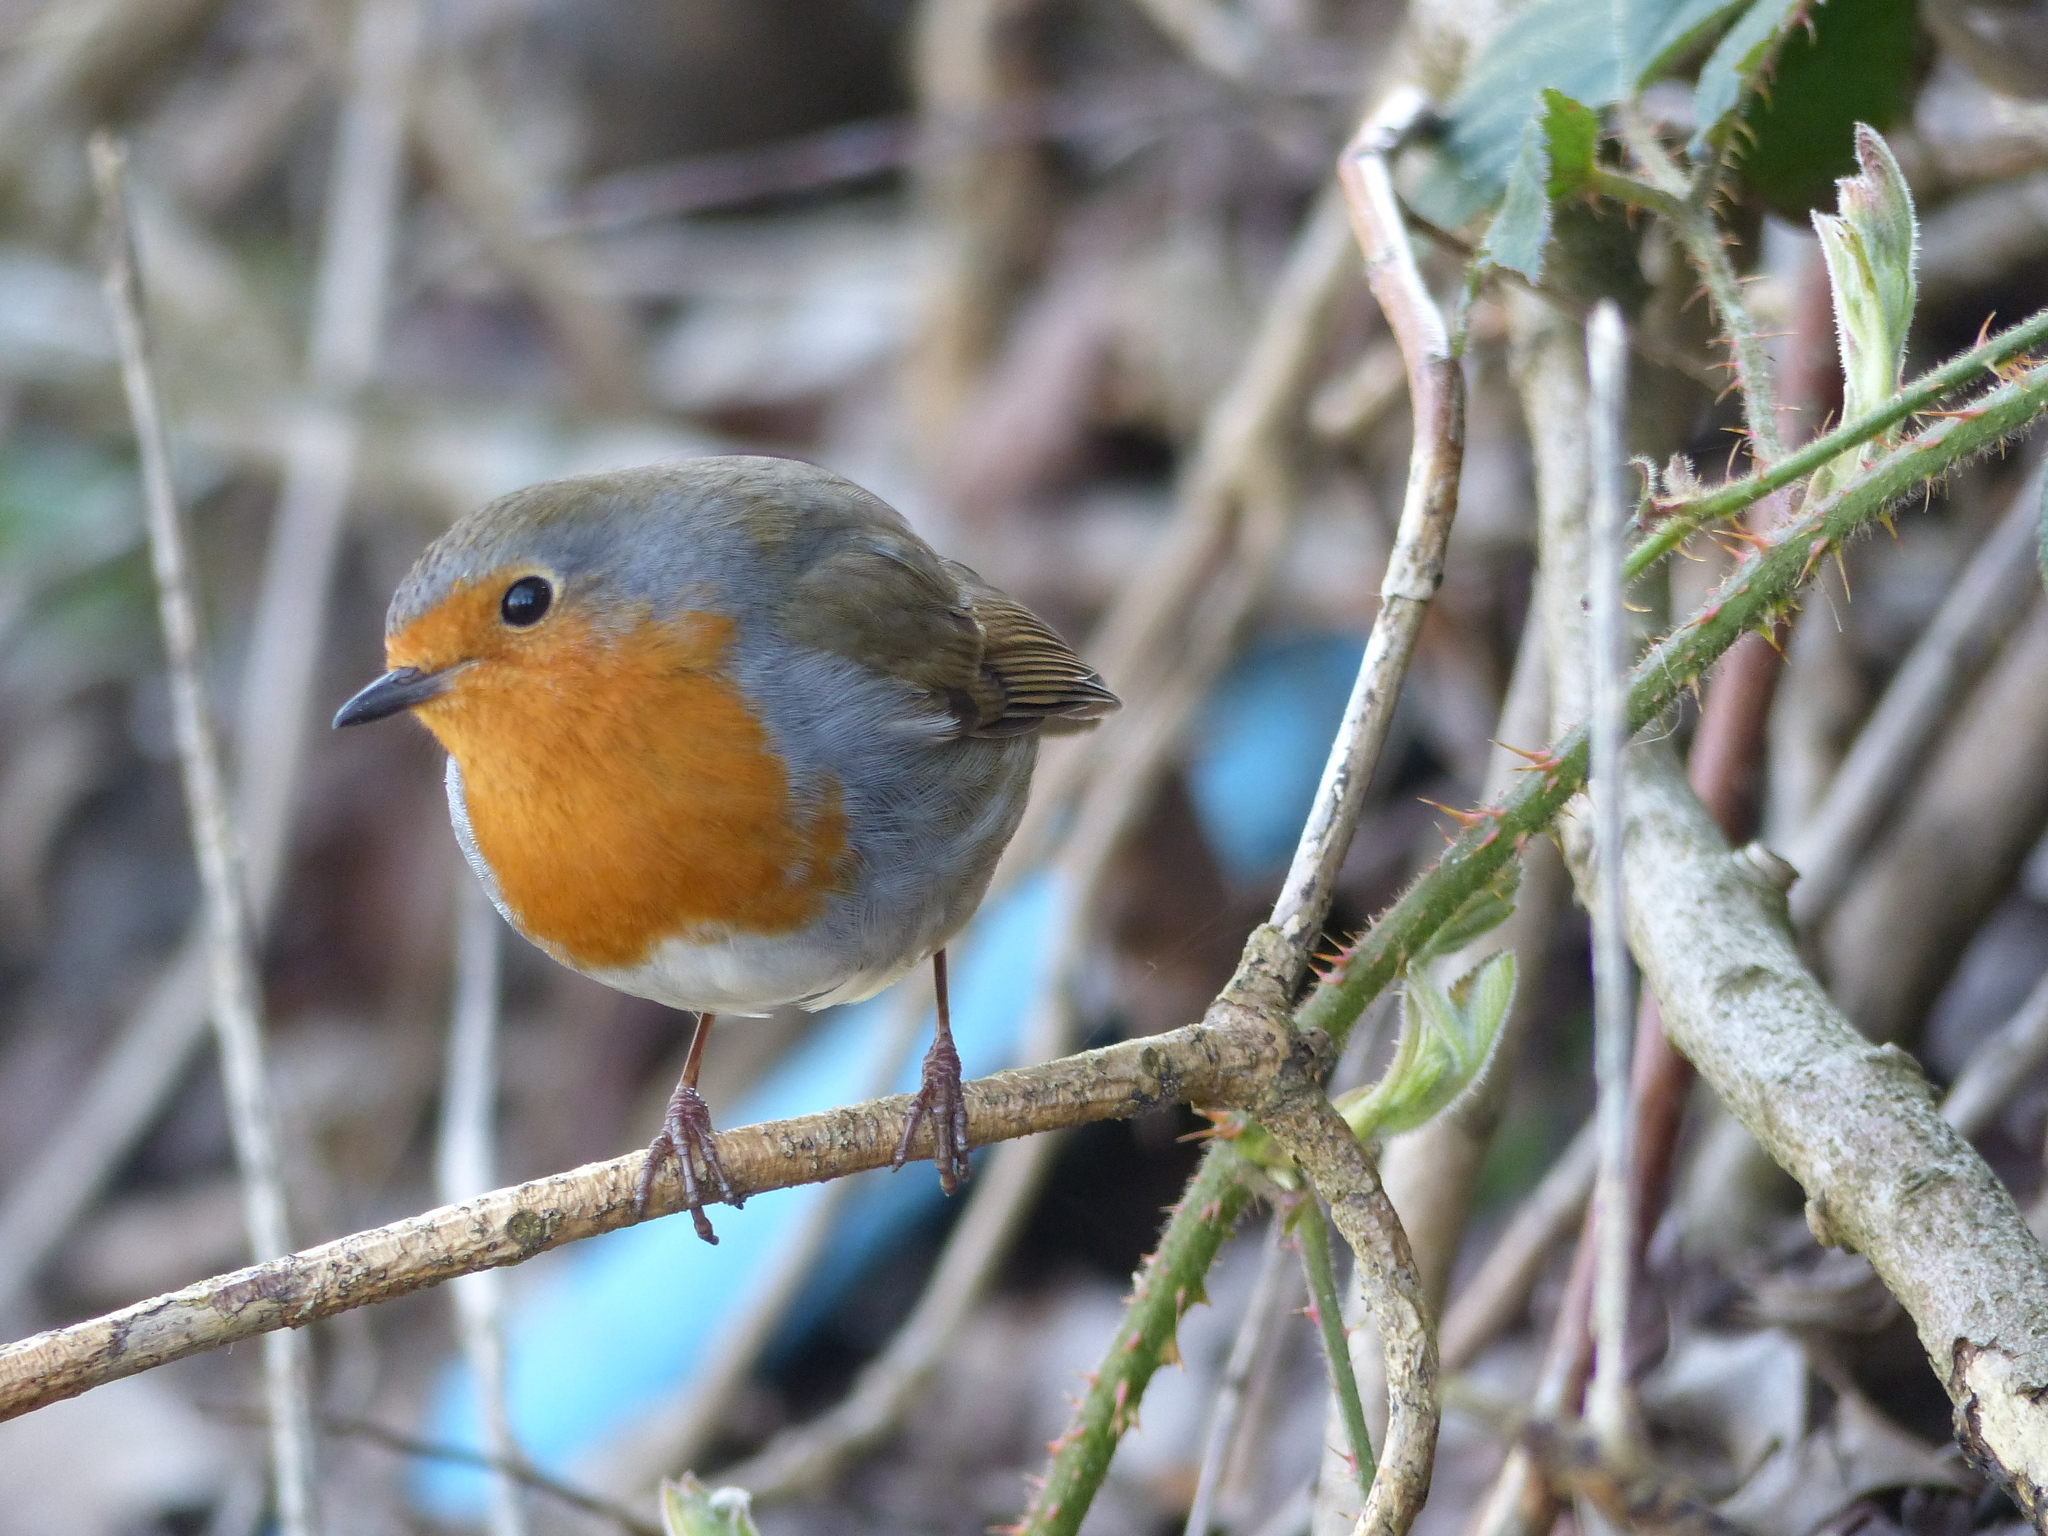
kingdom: Animalia
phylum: Chordata
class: Aves
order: Passeriformes
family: Muscicapidae
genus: Erithacus
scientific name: Erithacus rubecula
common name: European robin
